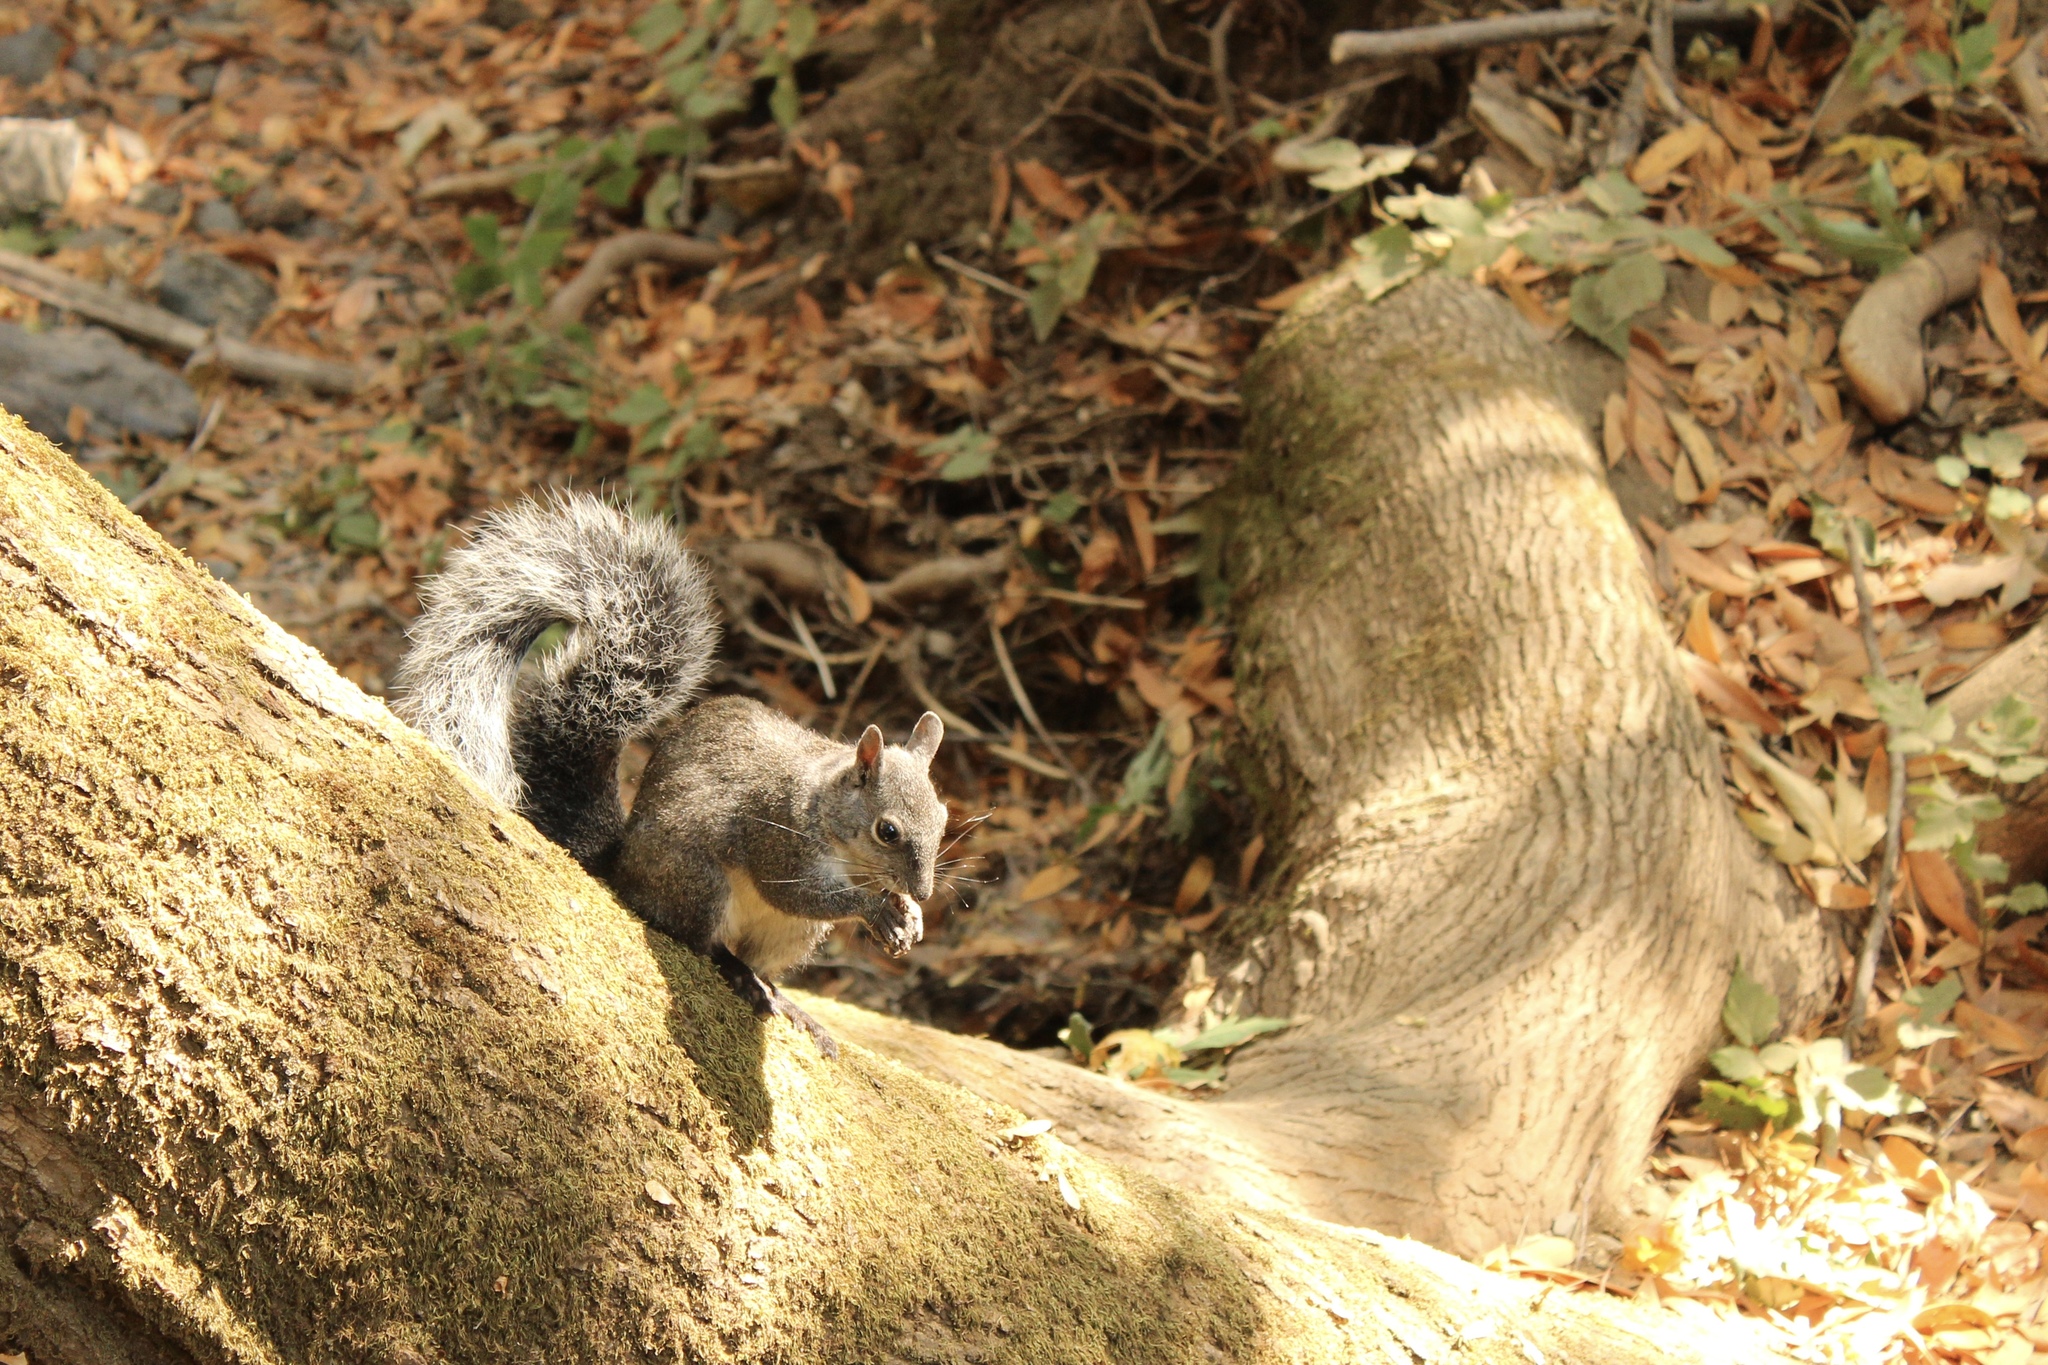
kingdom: Animalia
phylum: Chordata
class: Mammalia
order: Rodentia
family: Sciuridae
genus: Sciurus
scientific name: Sciurus griseus
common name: Western gray squirrel
